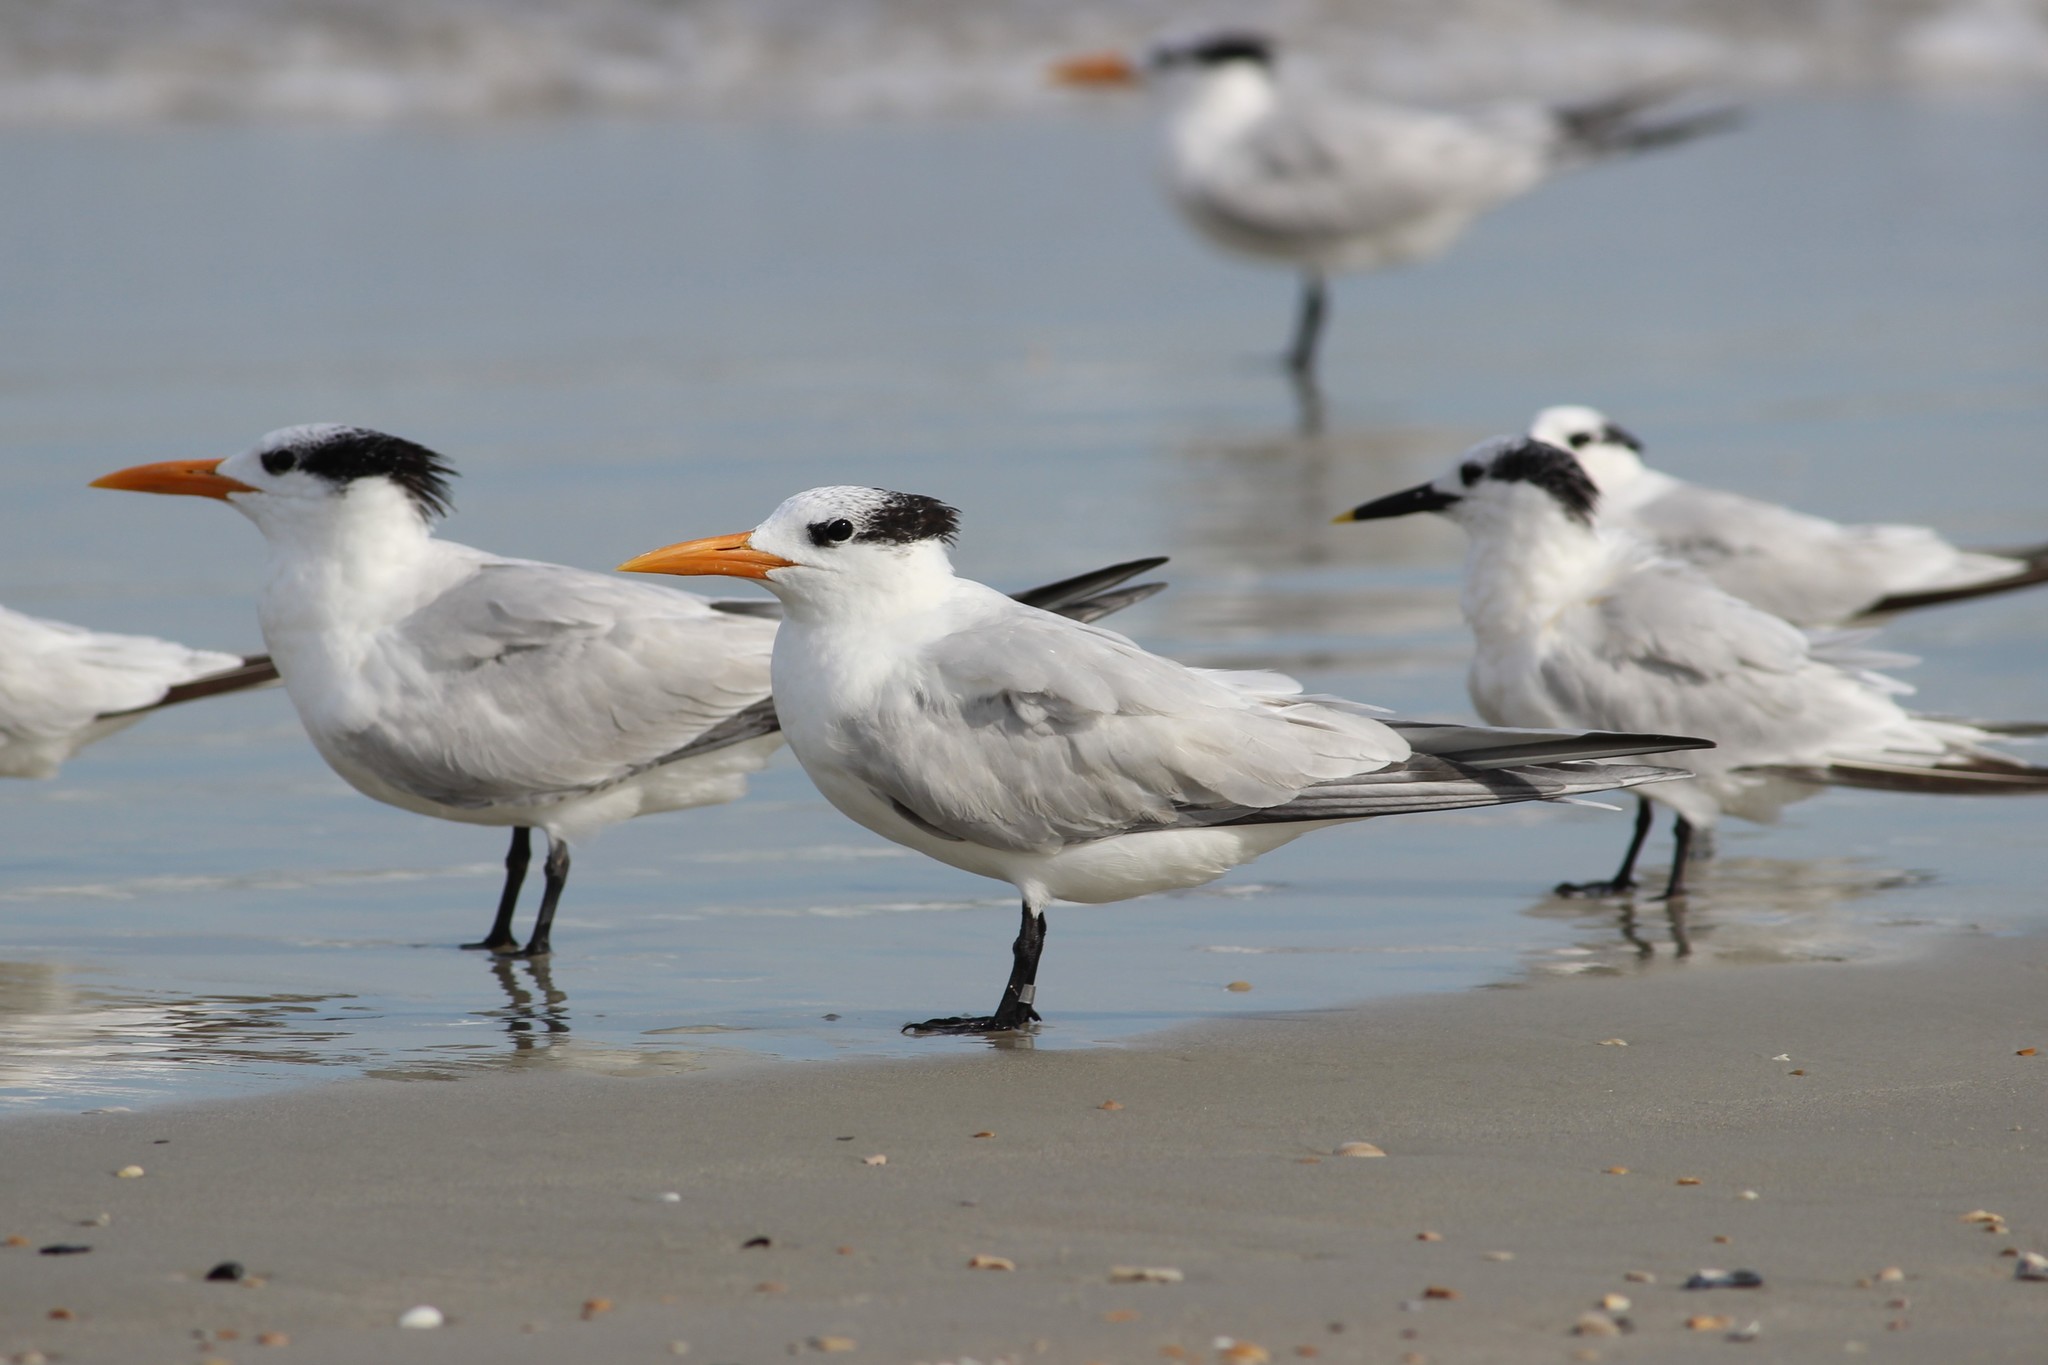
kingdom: Animalia
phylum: Chordata
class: Aves
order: Charadriiformes
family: Laridae
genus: Thalasseus
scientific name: Thalasseus maximus
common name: Royal tern
